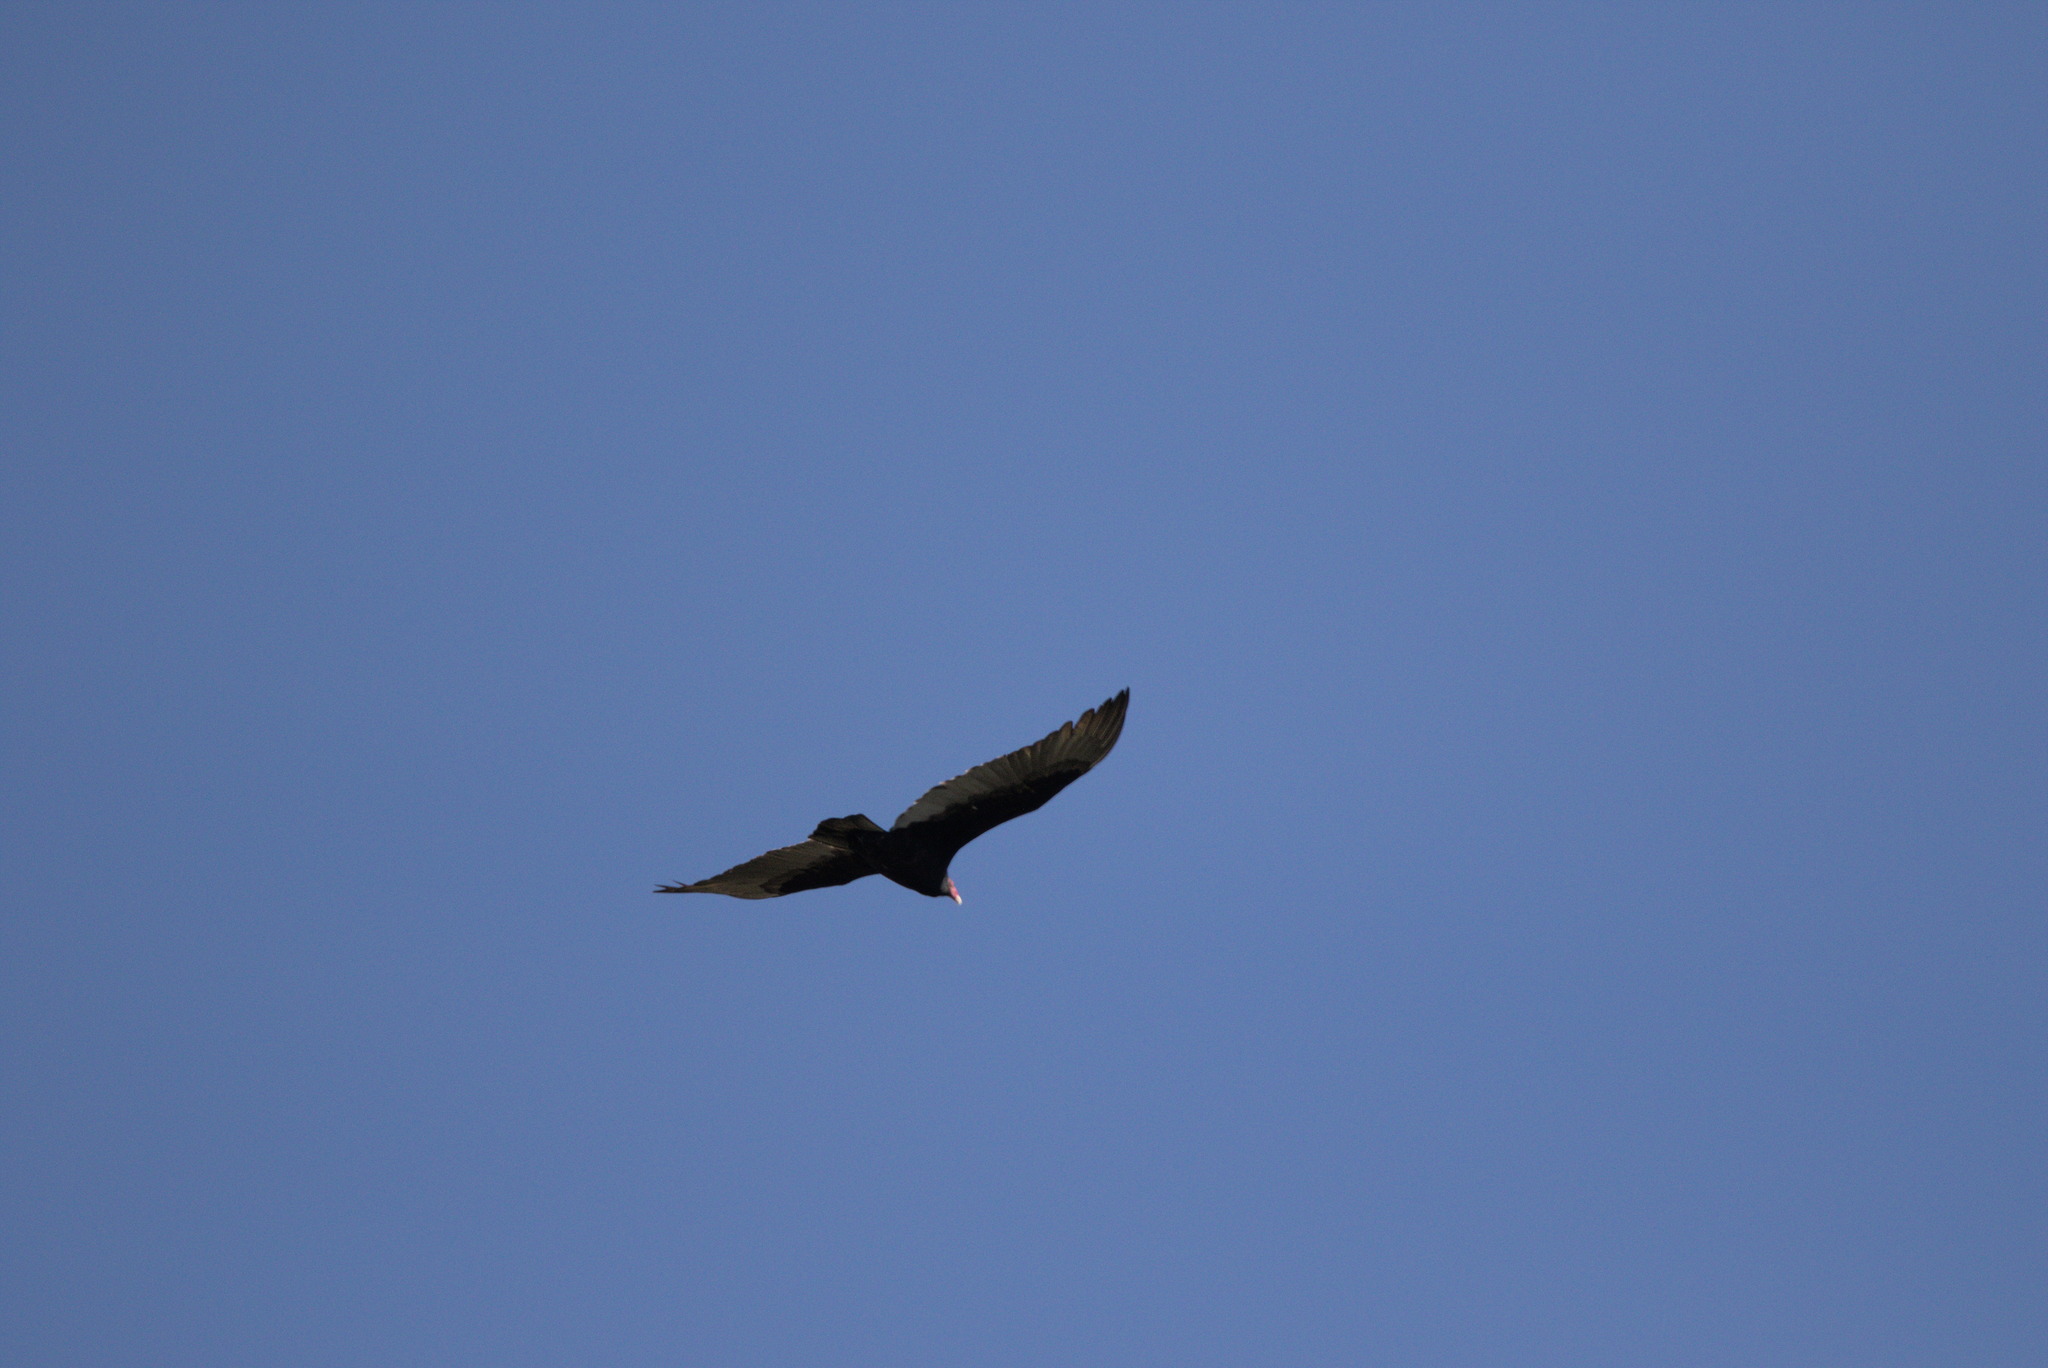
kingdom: Animalia
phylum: Chordata
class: Aves
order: Accipitriformes
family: Cathartidae
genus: Cathartes
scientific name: Cathartes aura
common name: Turkey vulture
